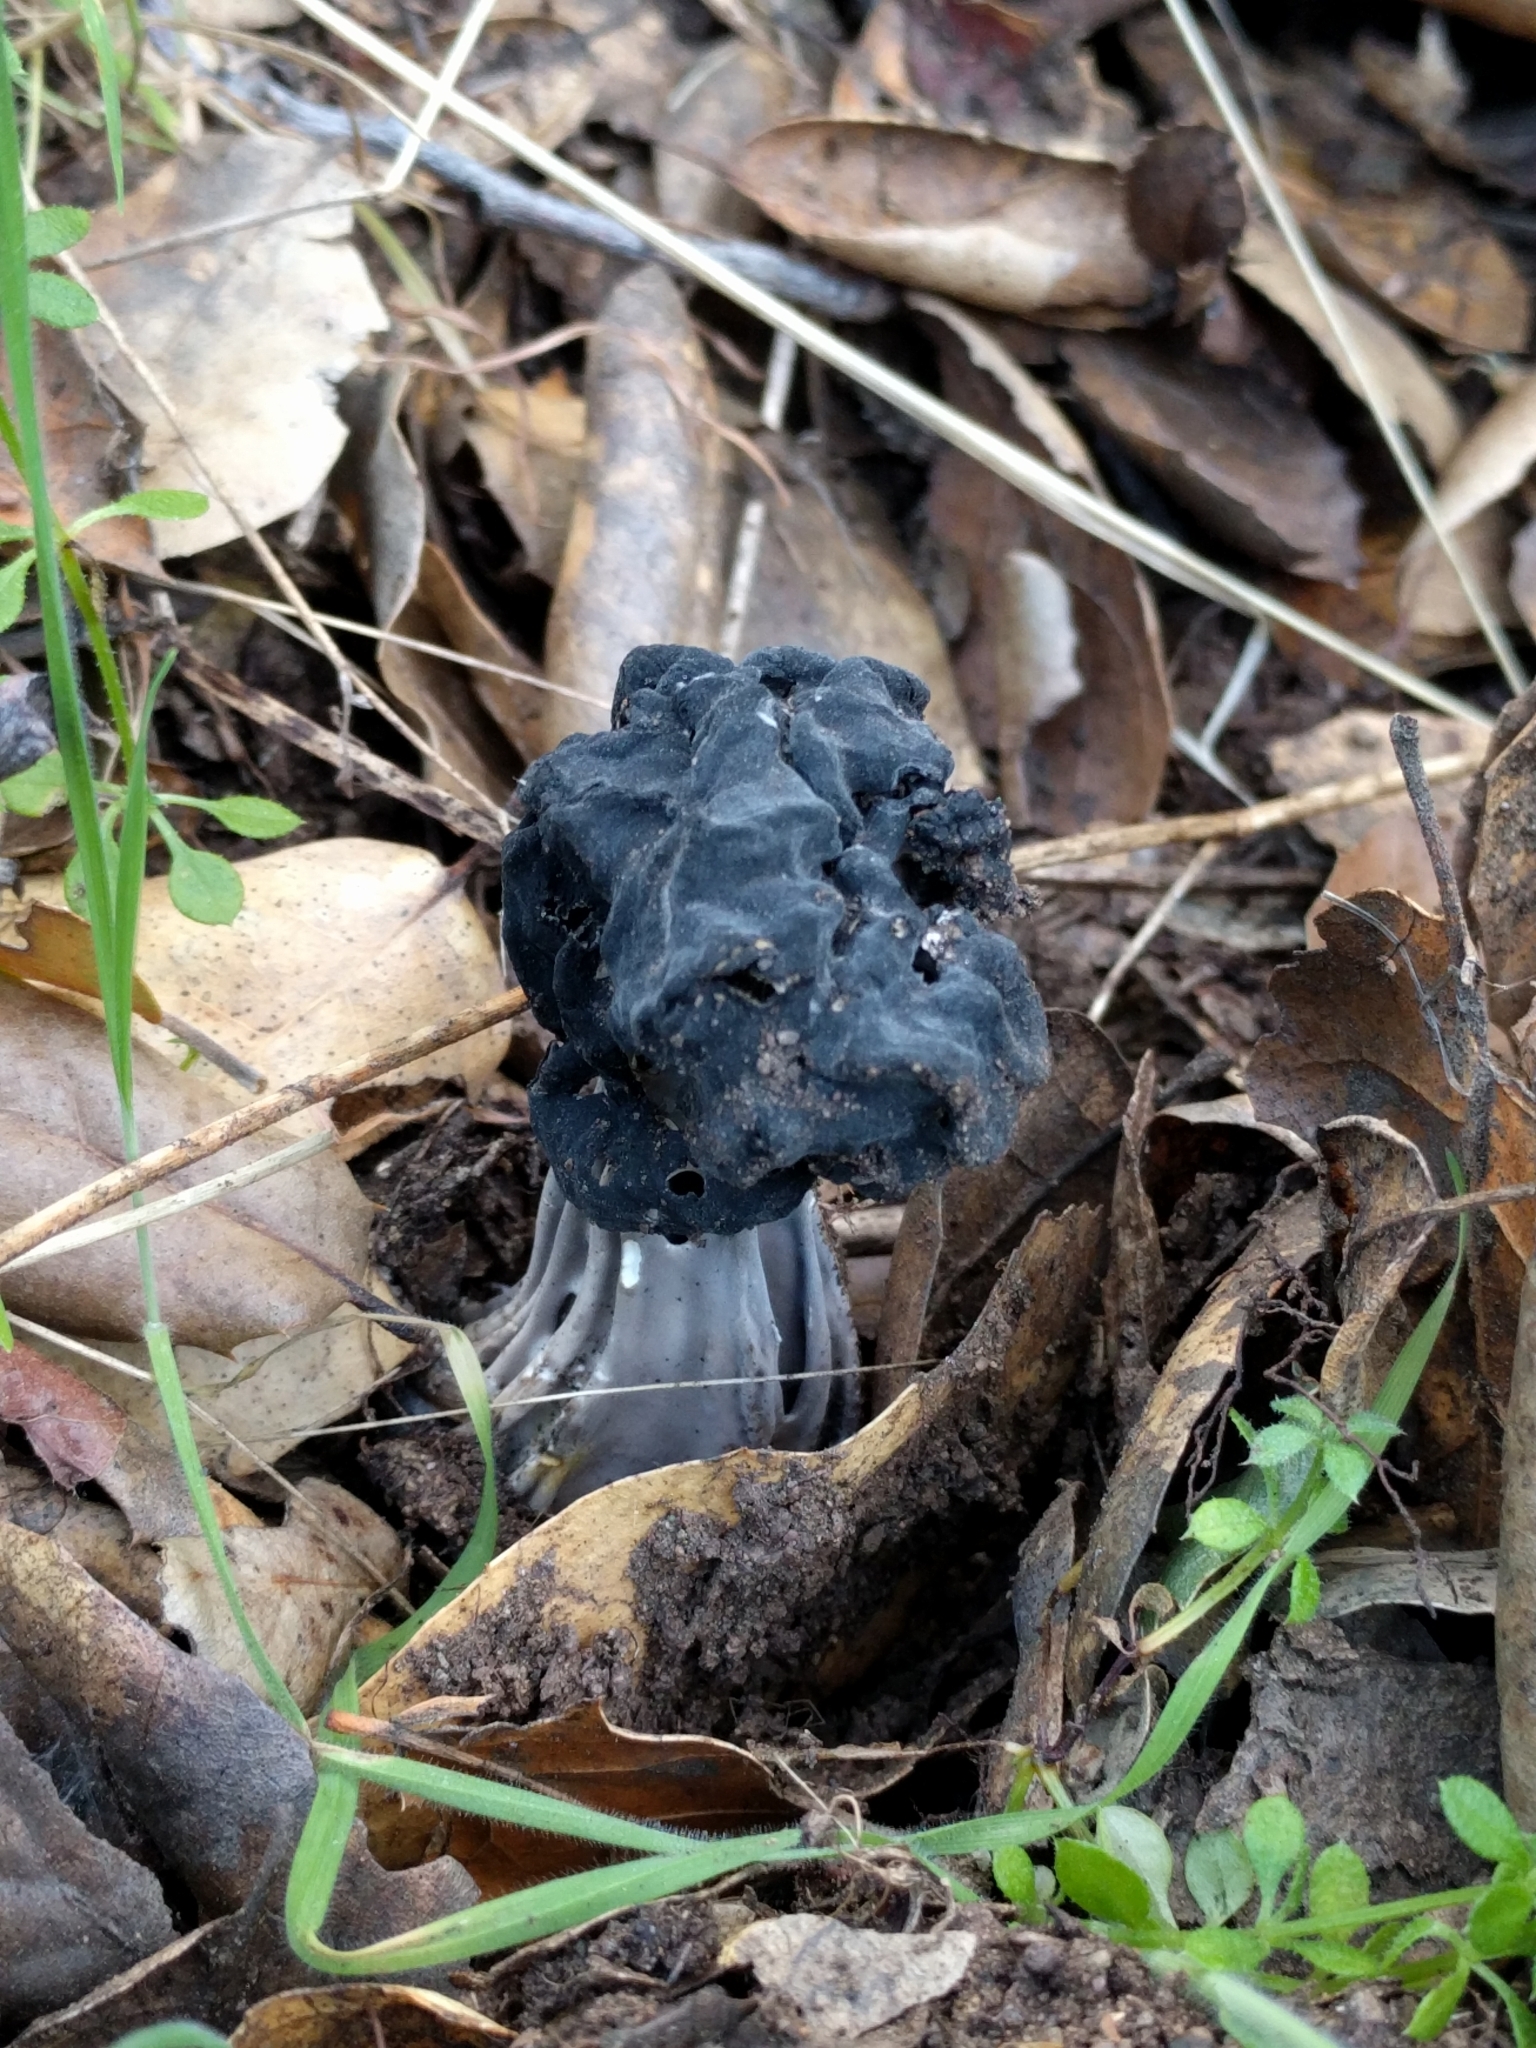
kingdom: Fungi
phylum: Ascomycota
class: Pezizomycetes
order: Pezizales
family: Helvellaceae
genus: Helvella
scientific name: Helvella dryophila
